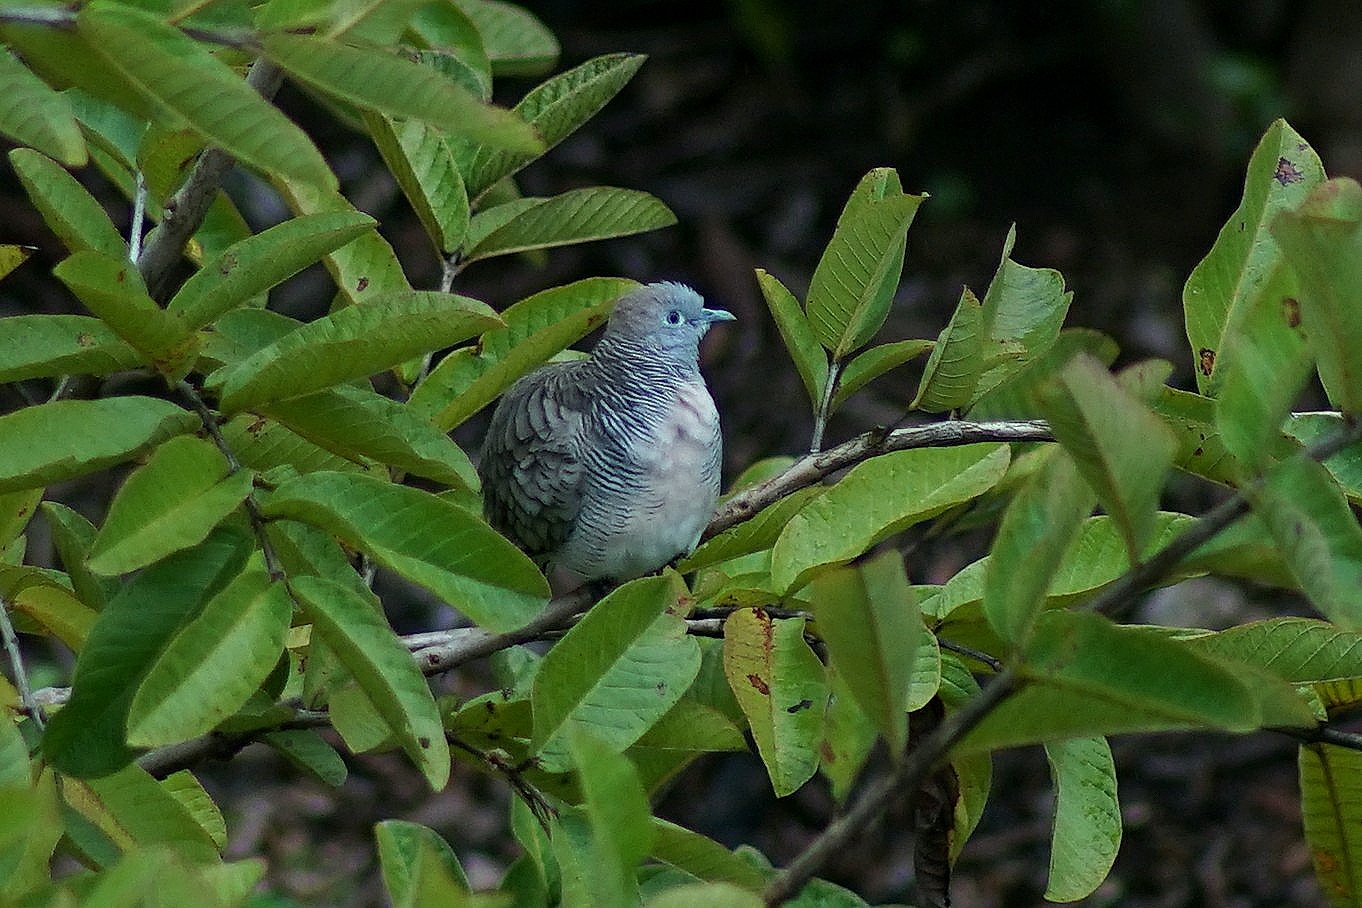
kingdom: Animalia
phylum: Chordata
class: Aves
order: Columbiformes
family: Columbidae
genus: Geopelia
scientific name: Geopelia striata
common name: Zebra dove
